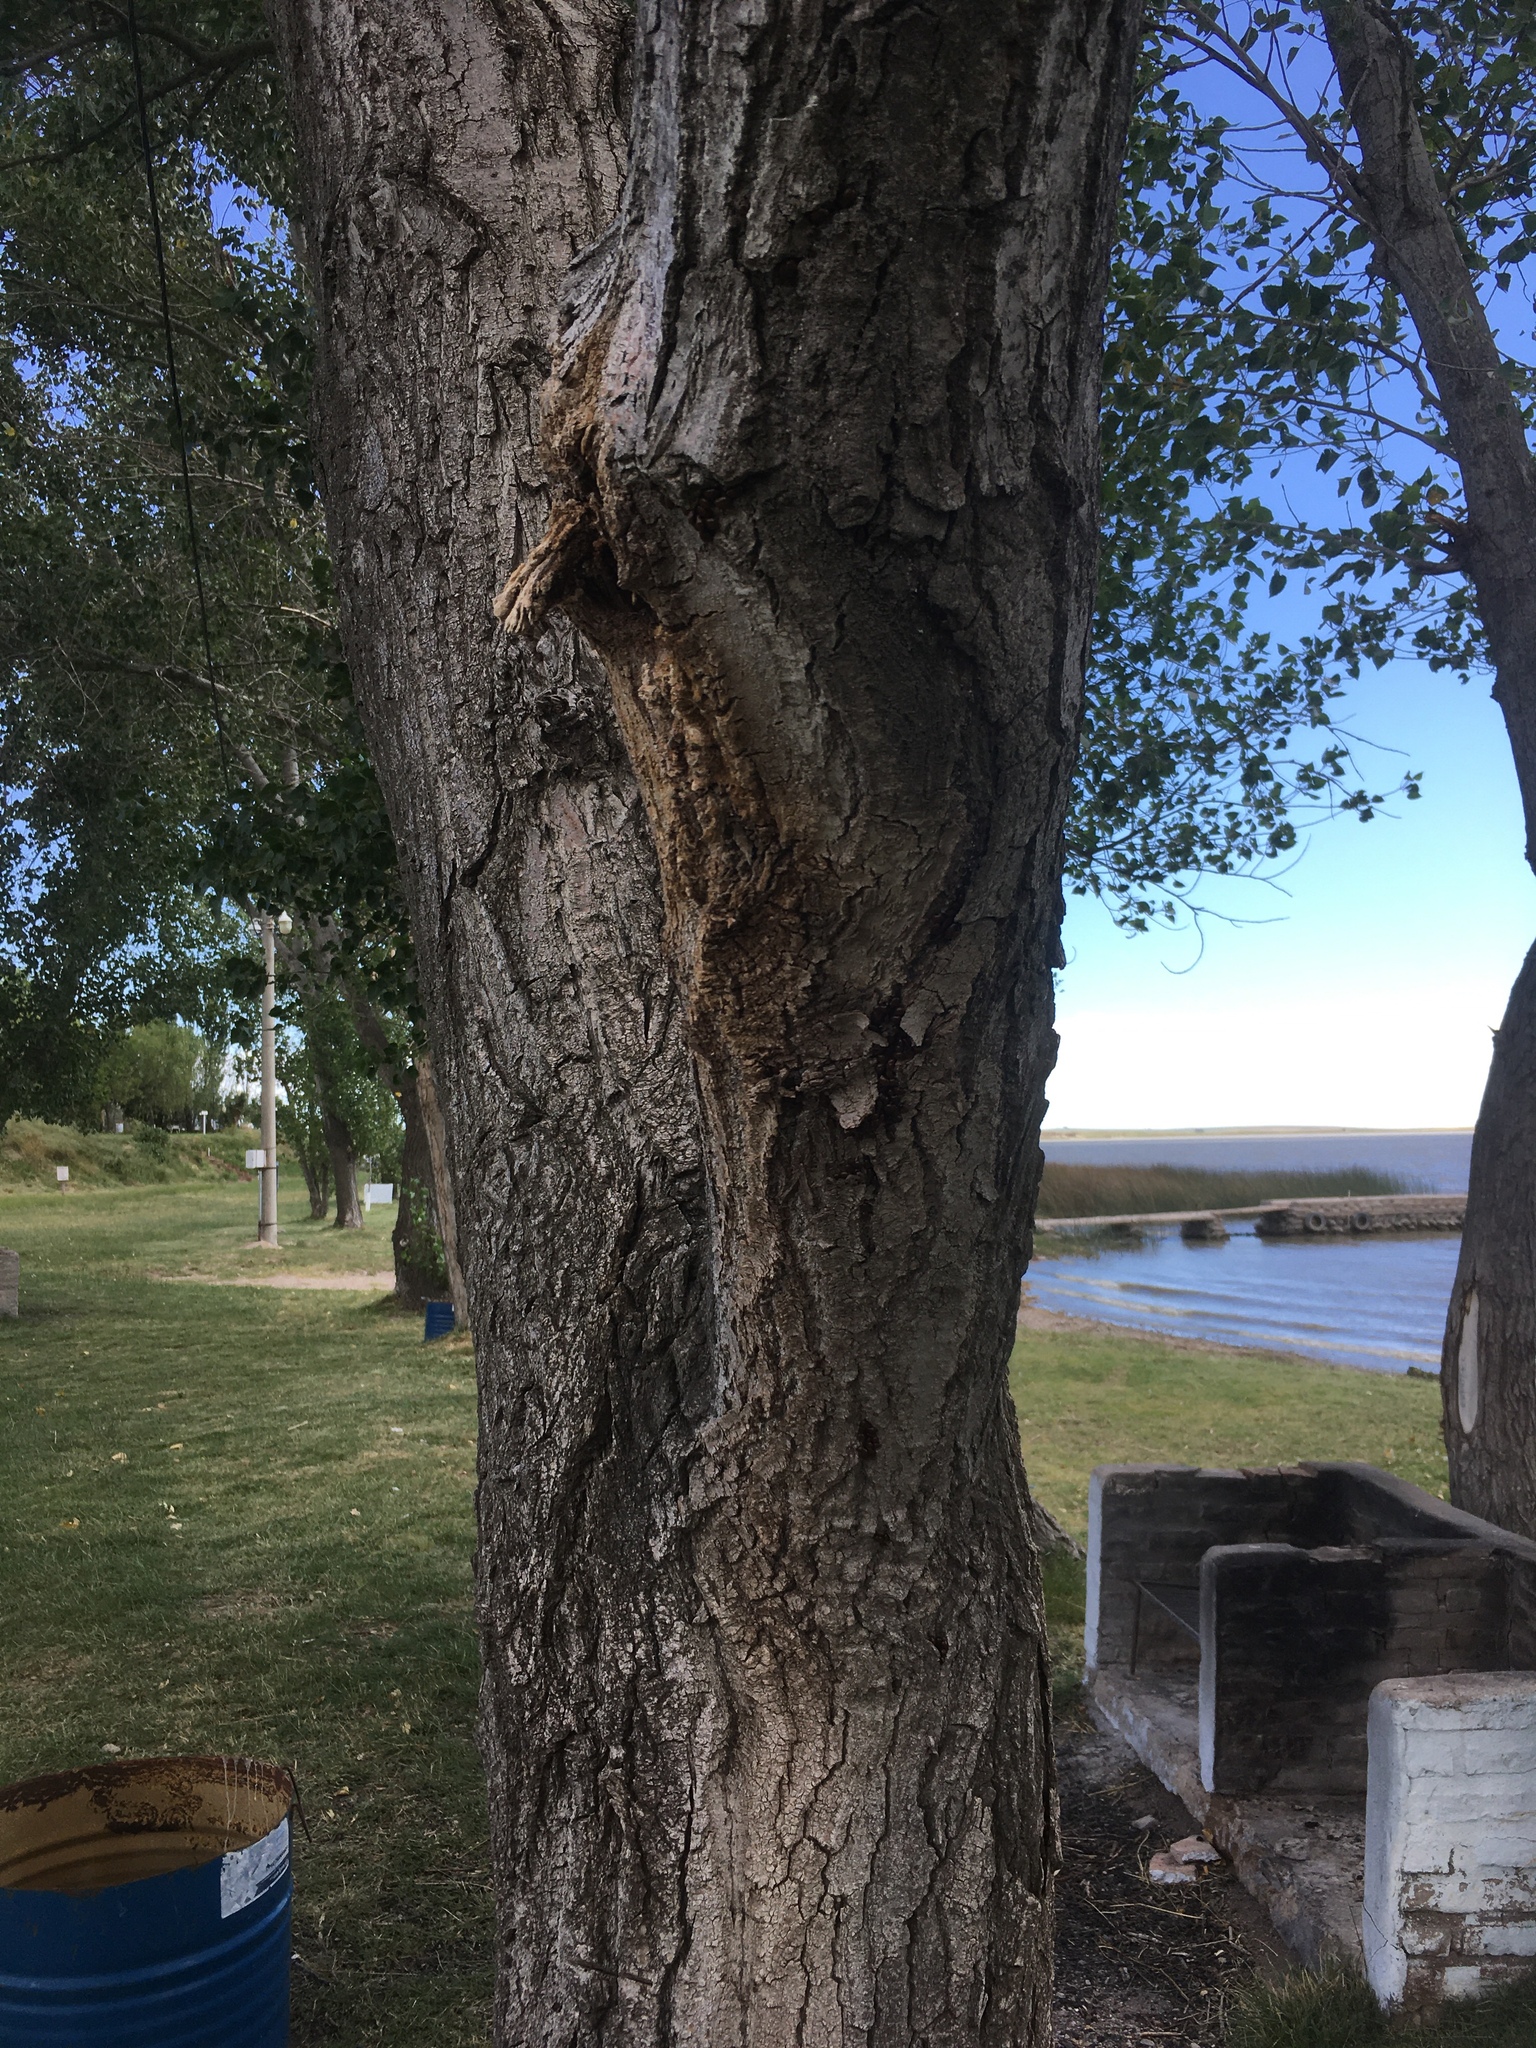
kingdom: Animalia
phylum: Arthropoda
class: Insecta
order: Coleoptera
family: Chrysomelidae
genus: Plagiodera
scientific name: Plagiodera
